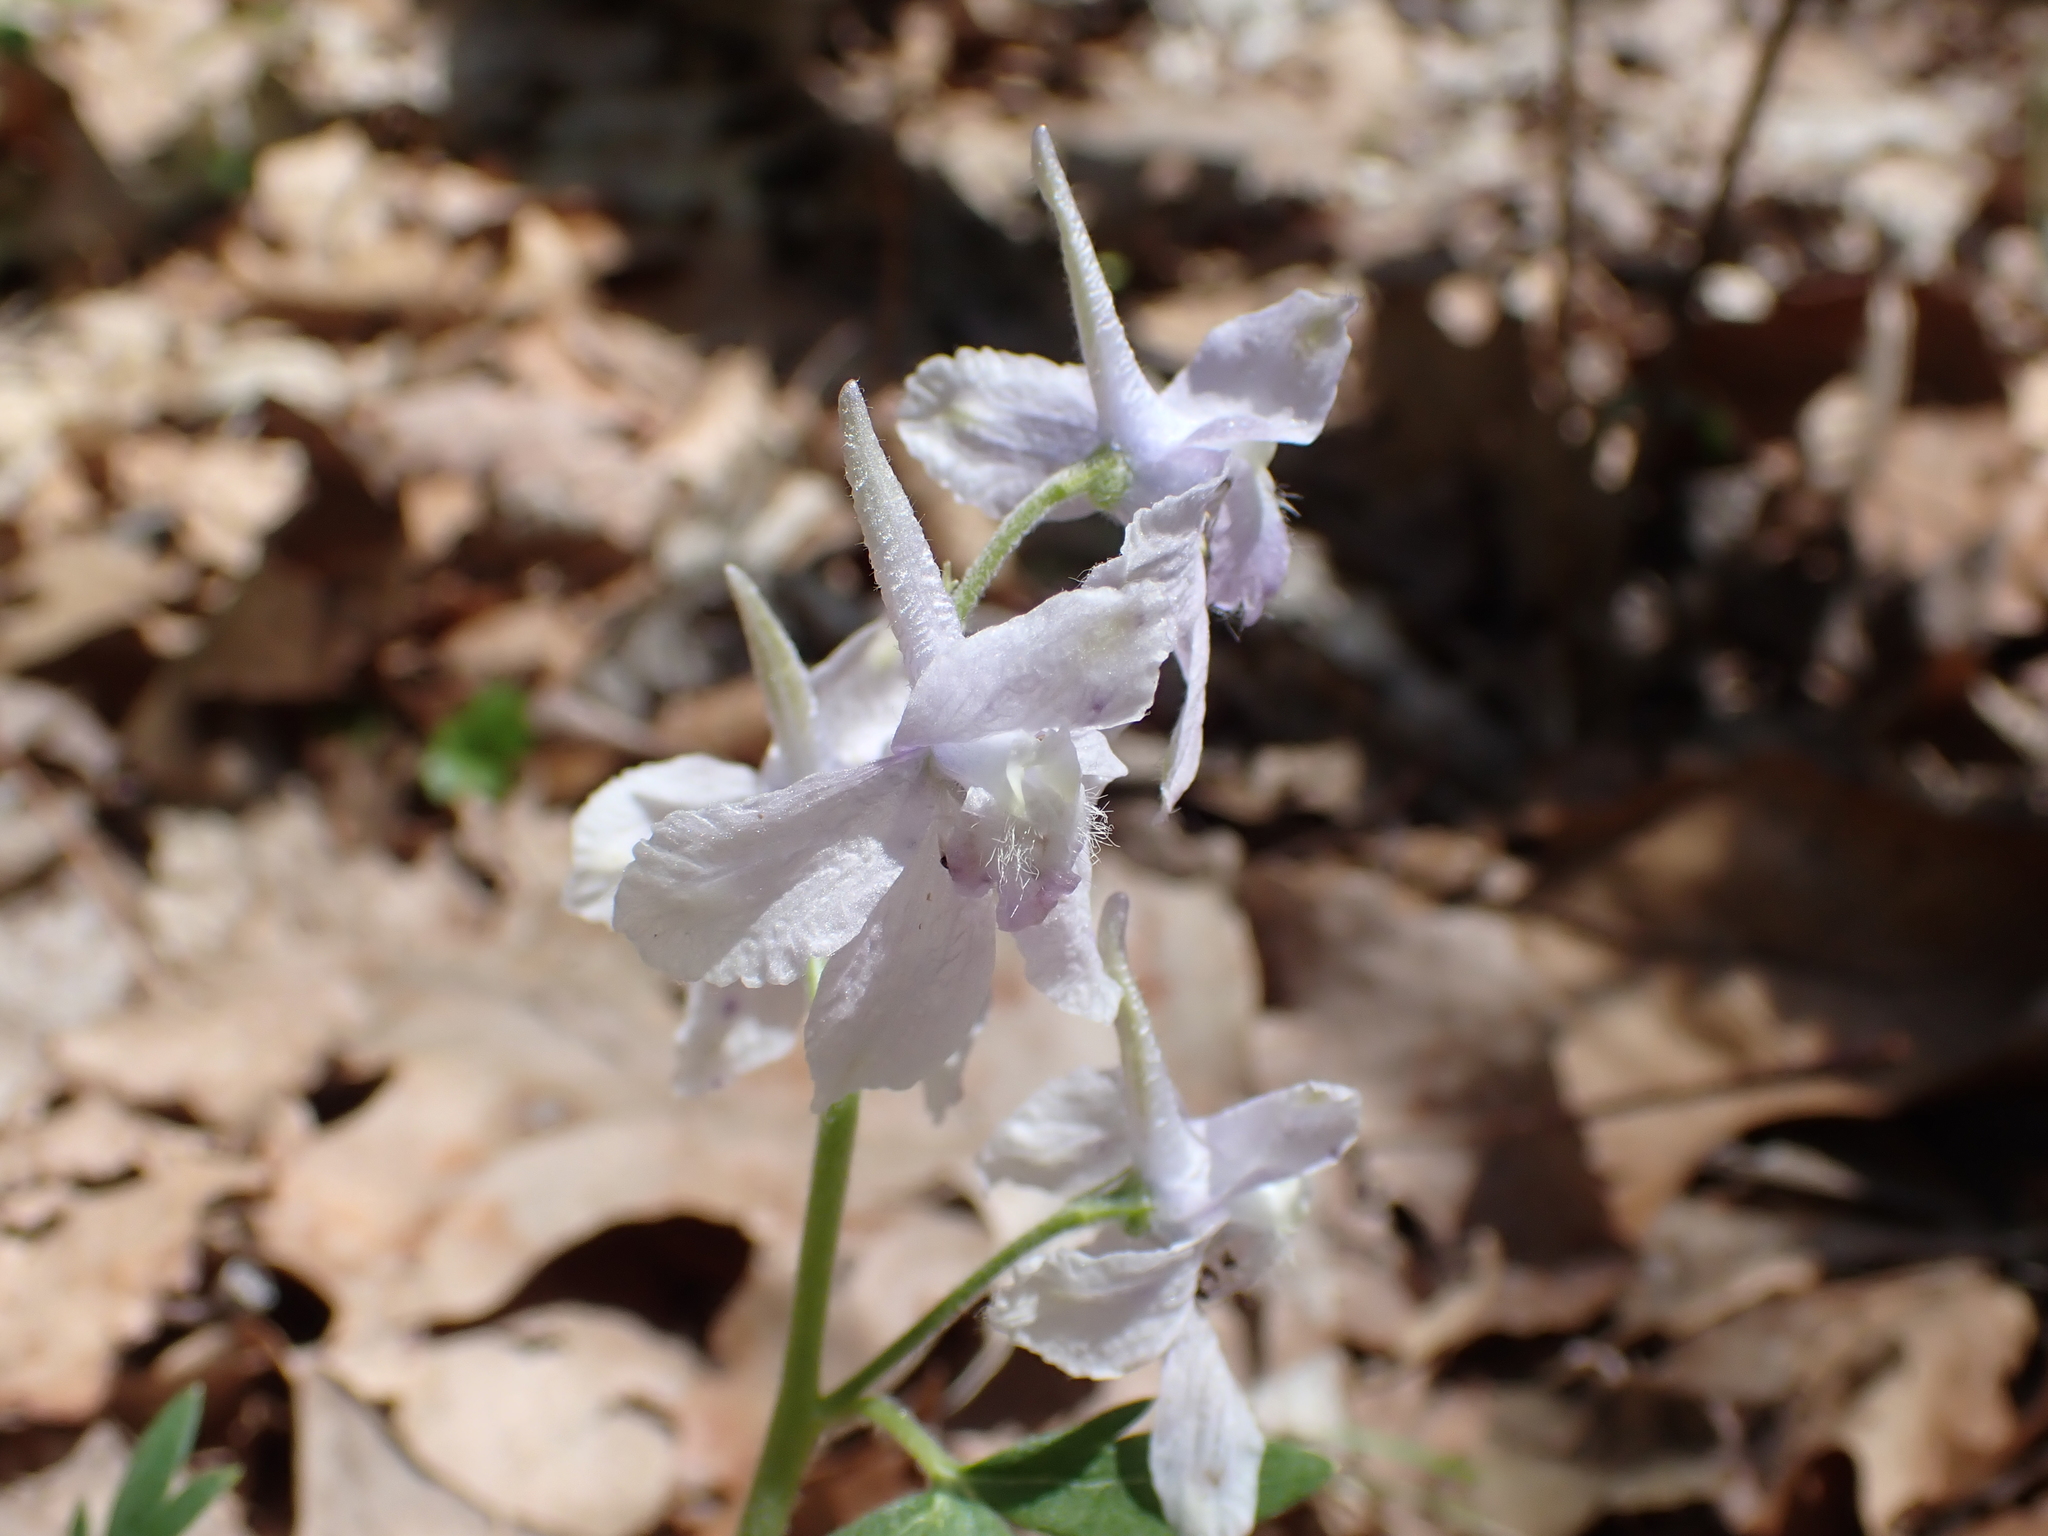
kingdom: Plantae
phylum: Tracheophyta
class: Magnoliopsida
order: Ranunculales
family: Ranunculaceae
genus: Delphinium
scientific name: Delphinium tricorne
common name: Dwarf larkspur
